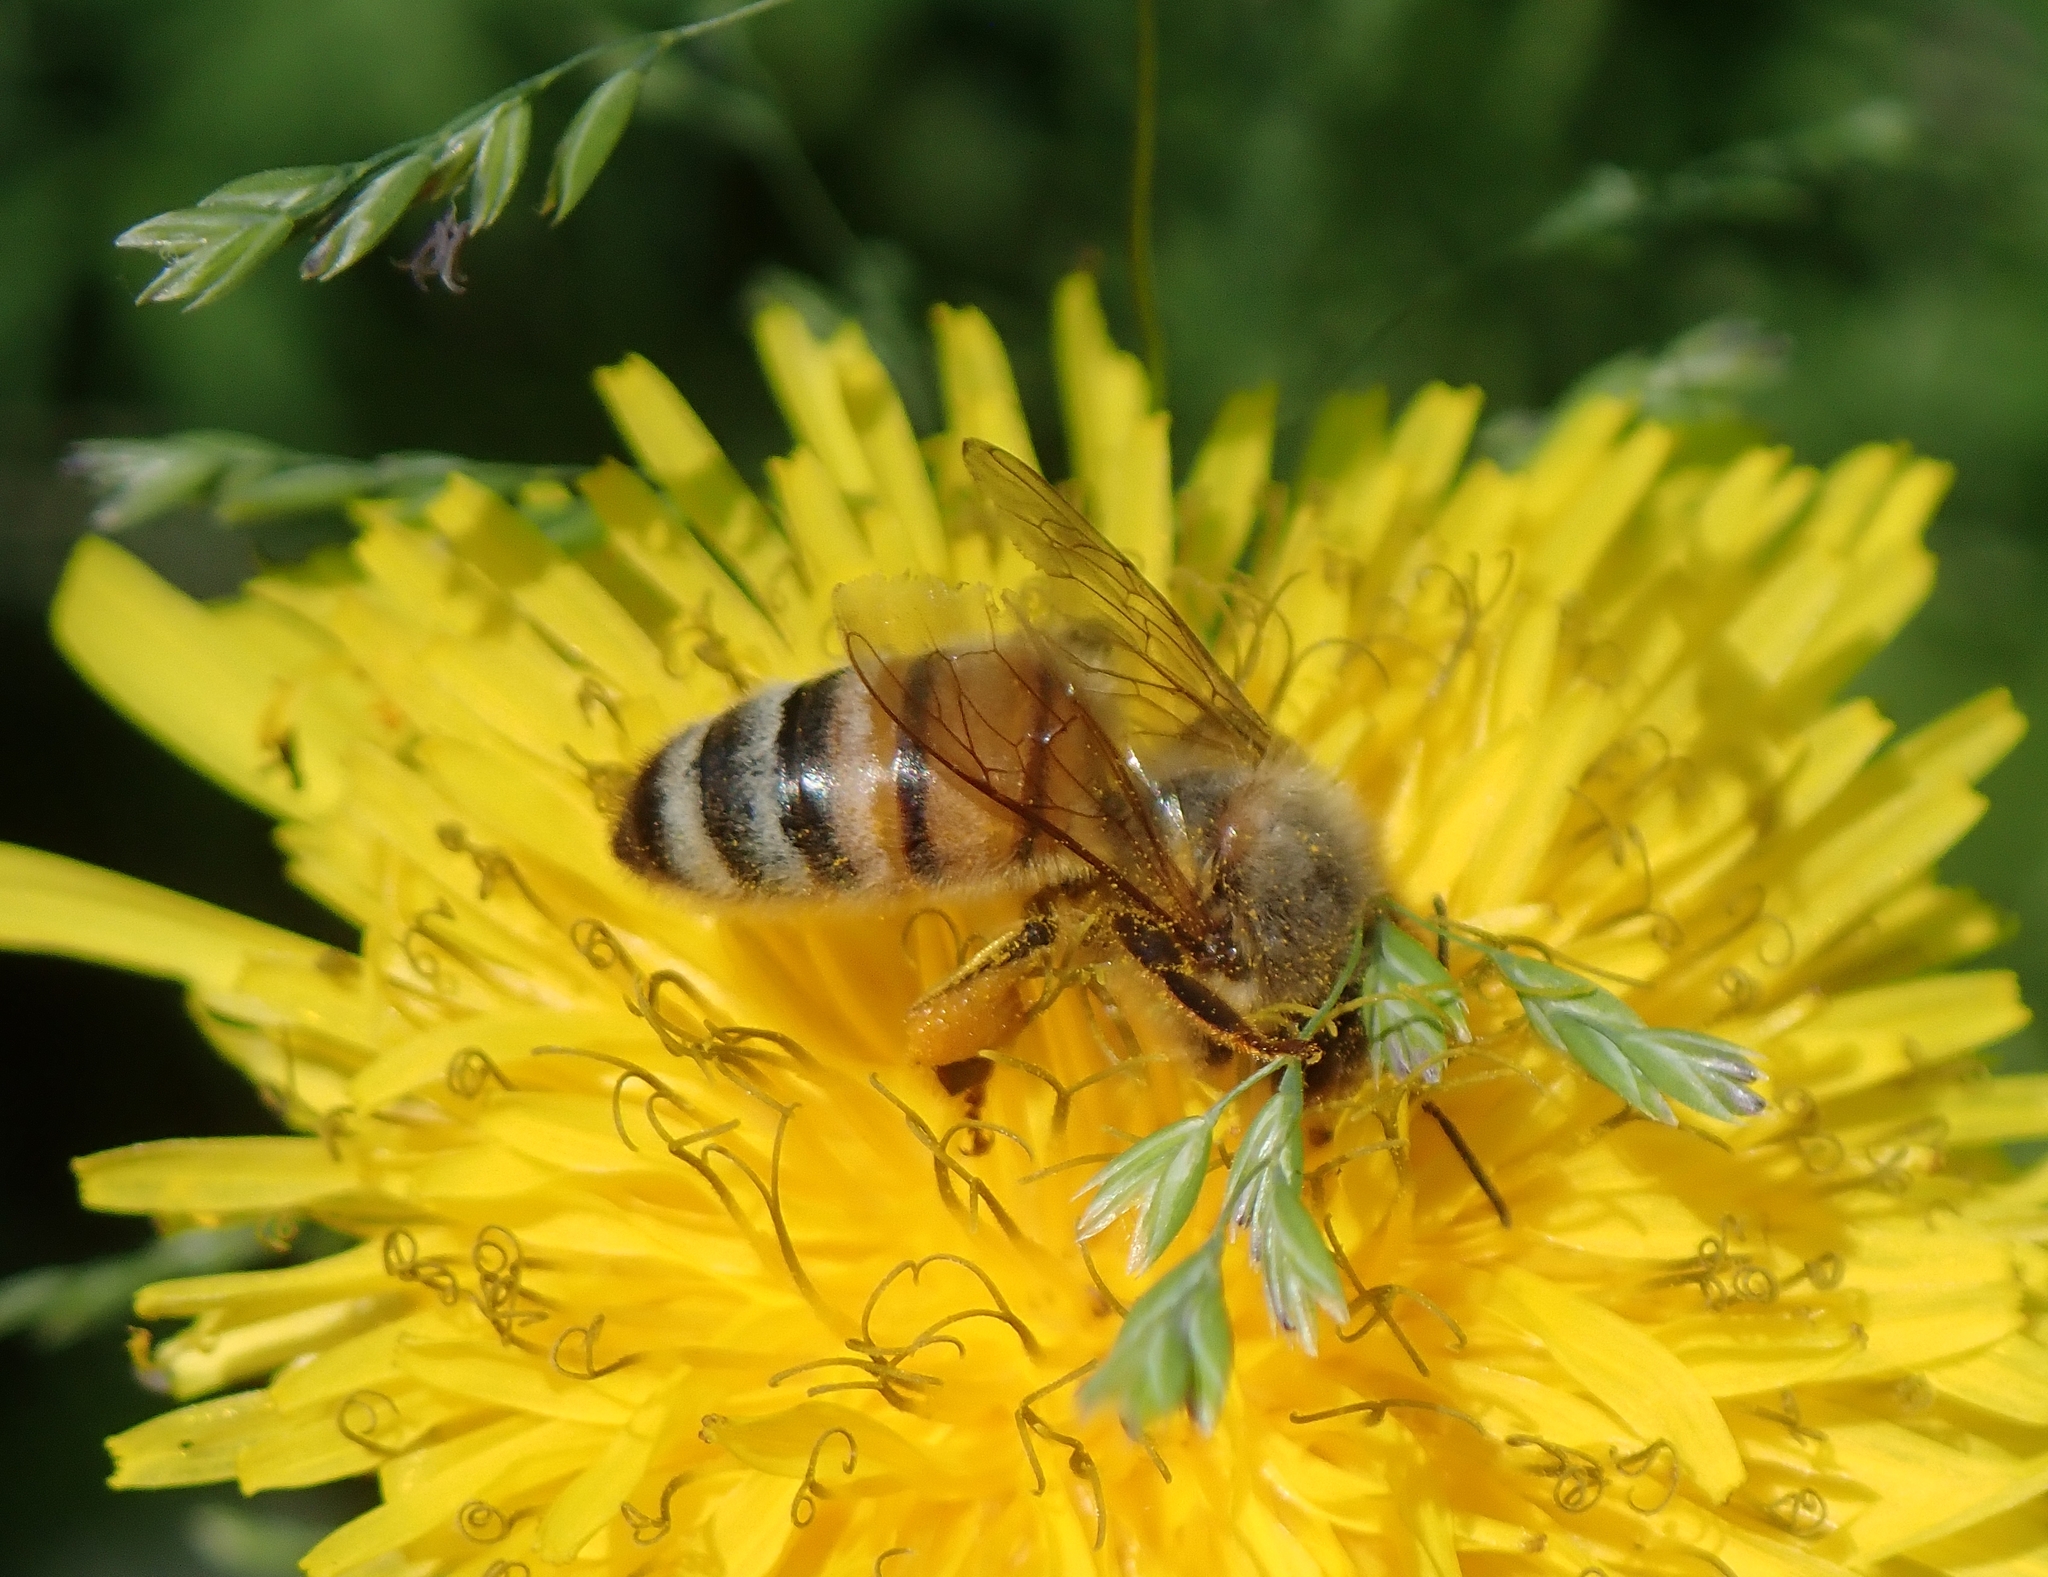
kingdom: Animalia
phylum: Arthropoda
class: Insecta
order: Hymenoptera
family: Apidae
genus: Apis
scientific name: Apis mellifera
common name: Honey bee
